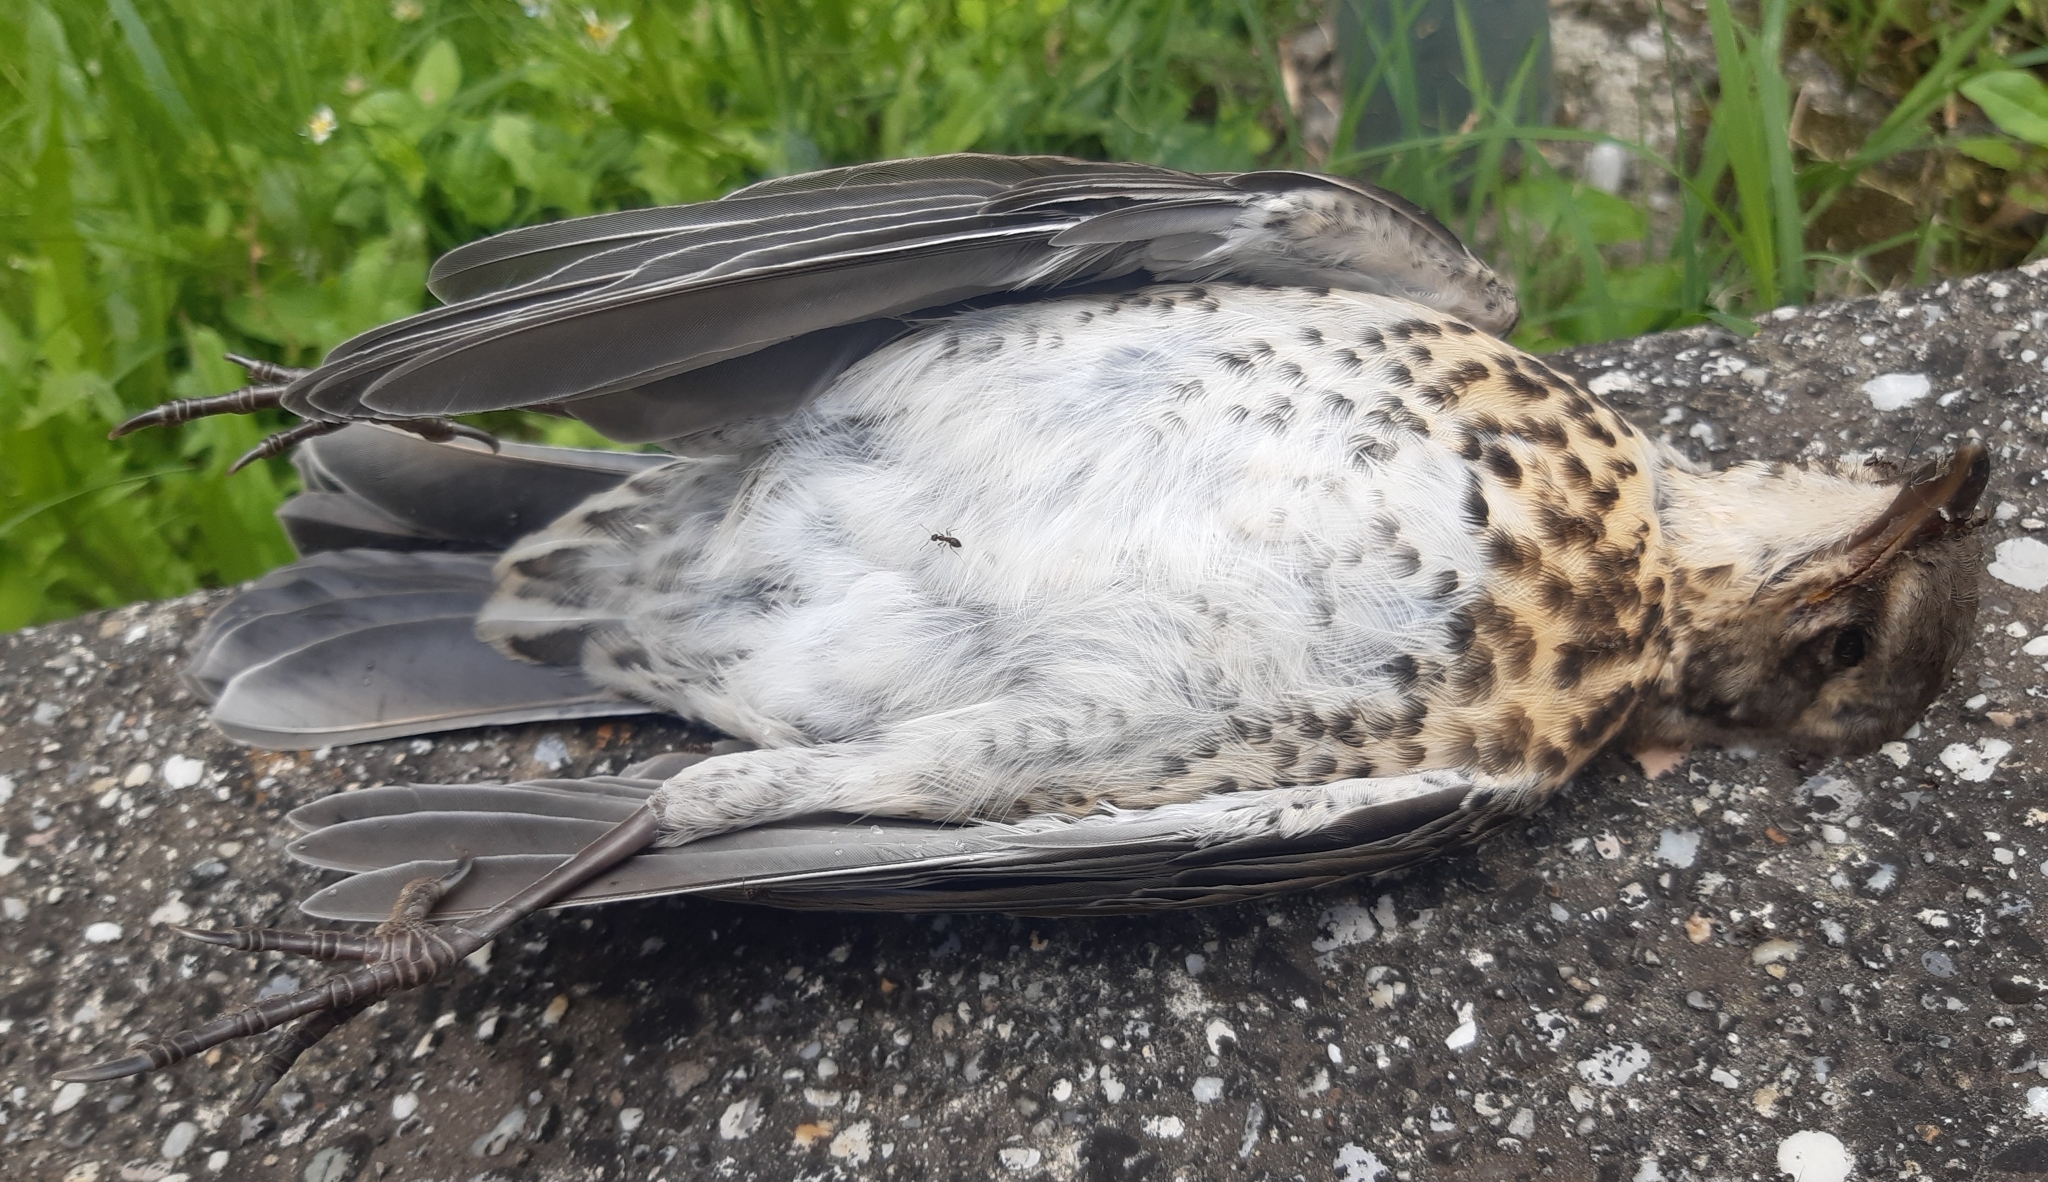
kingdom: Animalia
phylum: Chordata
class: Aves
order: Passeriformes
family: Turdidae
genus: Turdus
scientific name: Turdus pilaris
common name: Fieldfare
